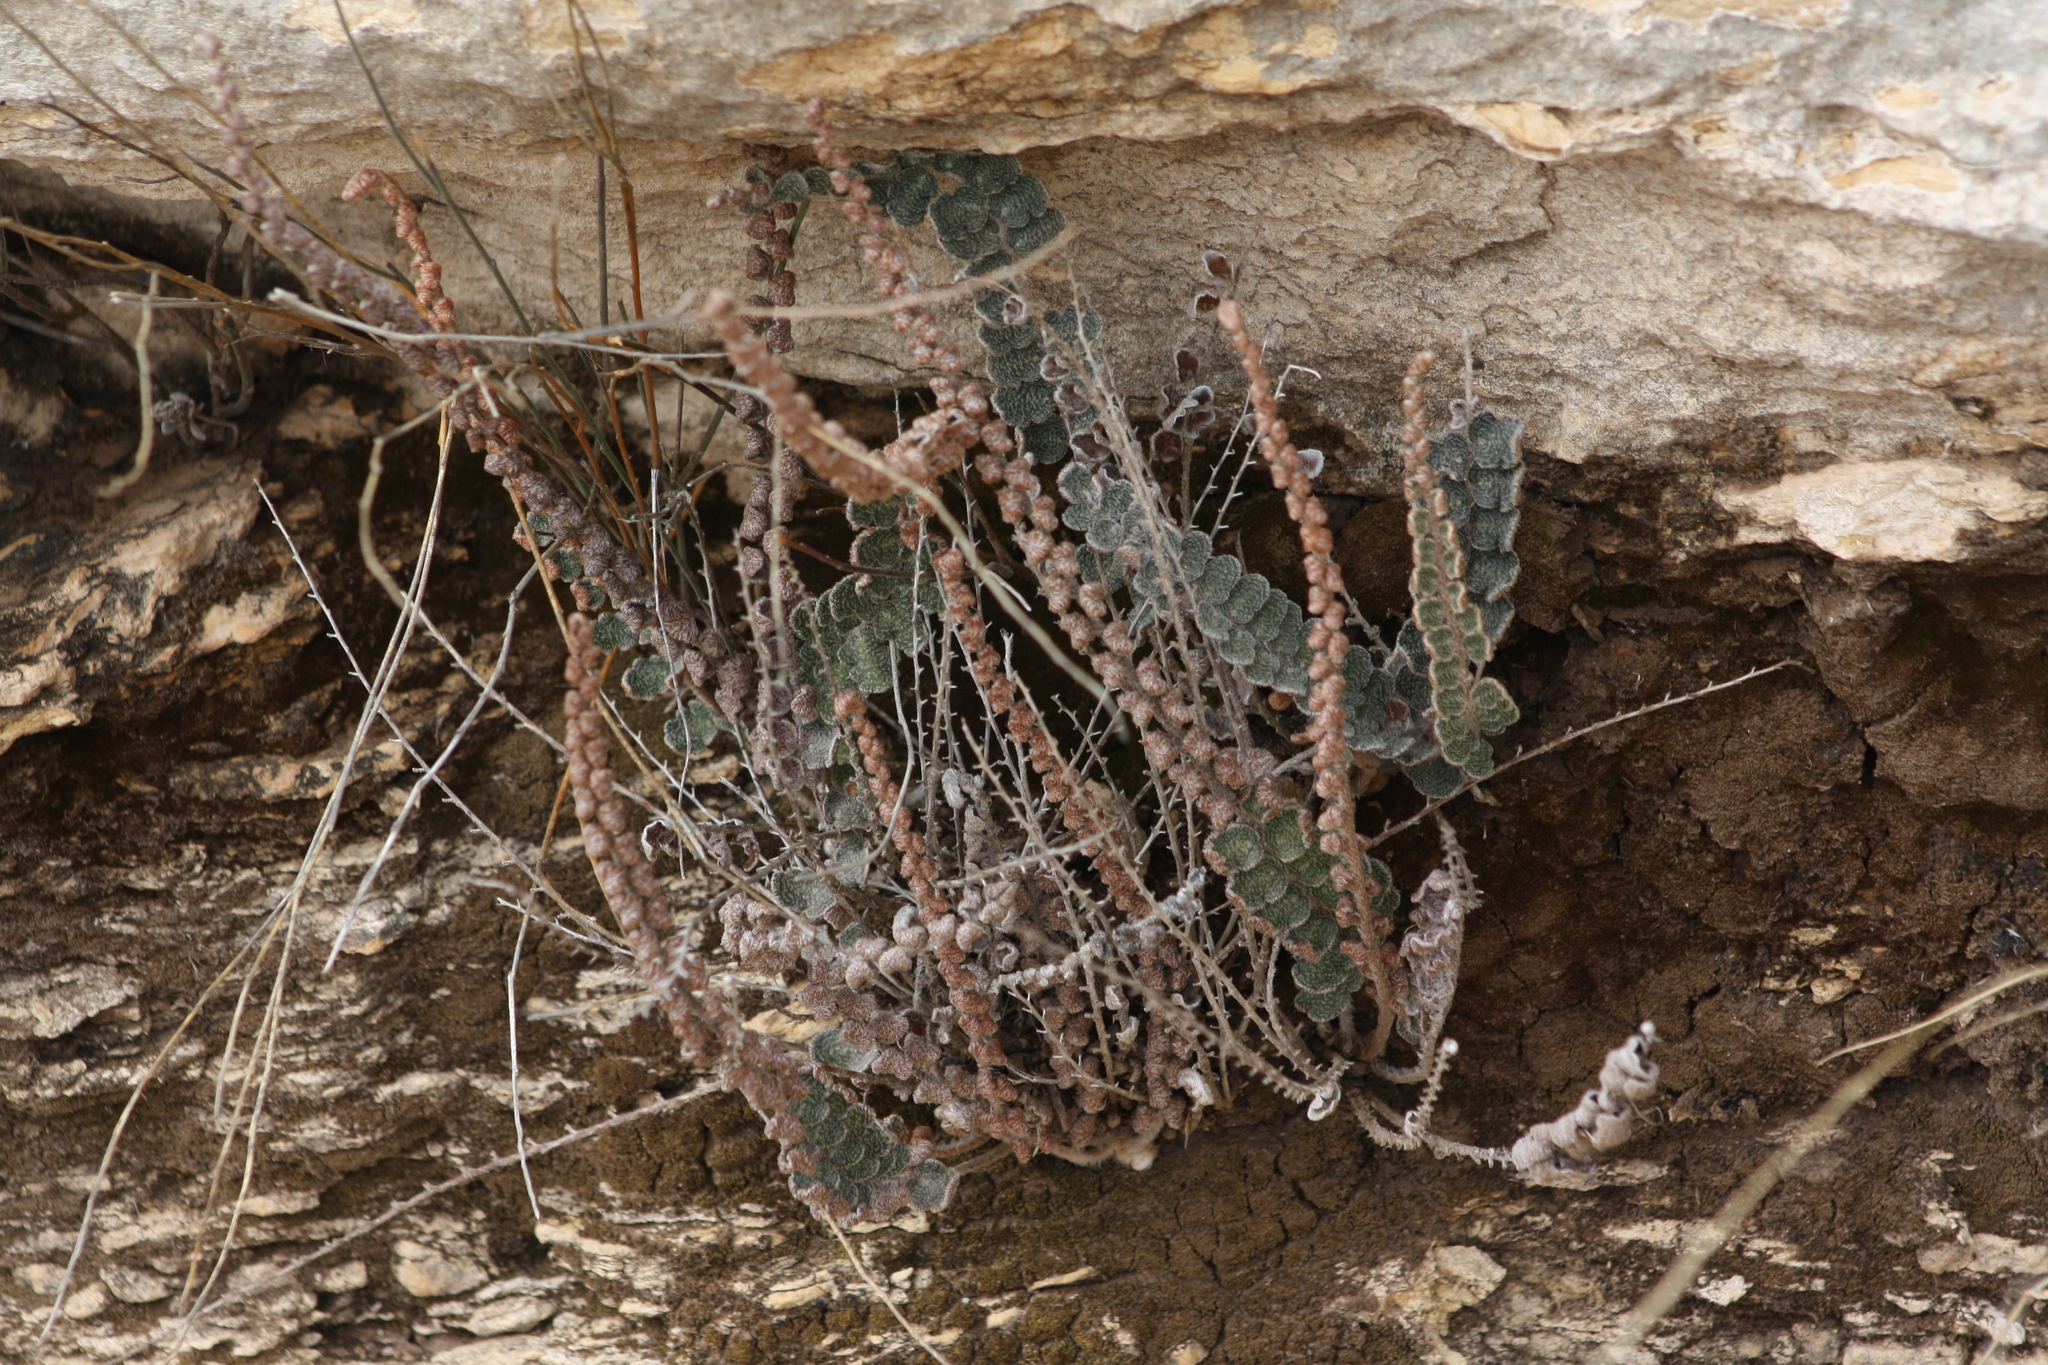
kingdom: Plantae
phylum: Tracheophyta
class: Polypodiopsida
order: Polypodiales
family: Pteridaceae
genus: Astrolepis
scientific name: Astrolepis integerrima
